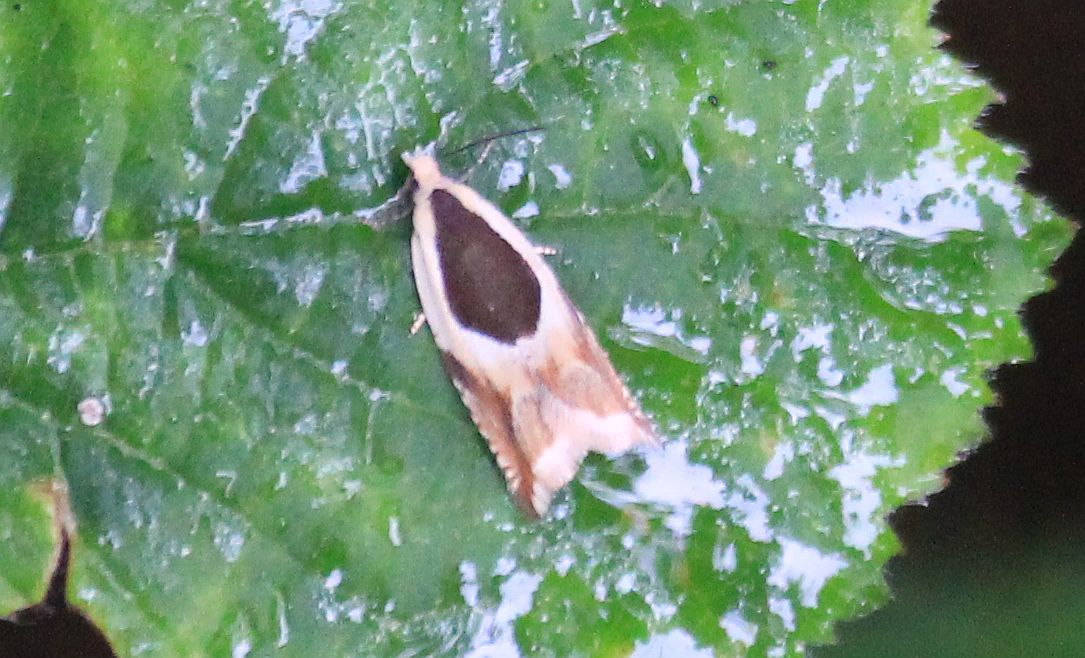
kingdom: Animalia
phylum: Arthropoda
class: Insecta
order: Lepidoptera
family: Tortricidae
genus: Ancylis
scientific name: Ancylis badiana
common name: Common roller
